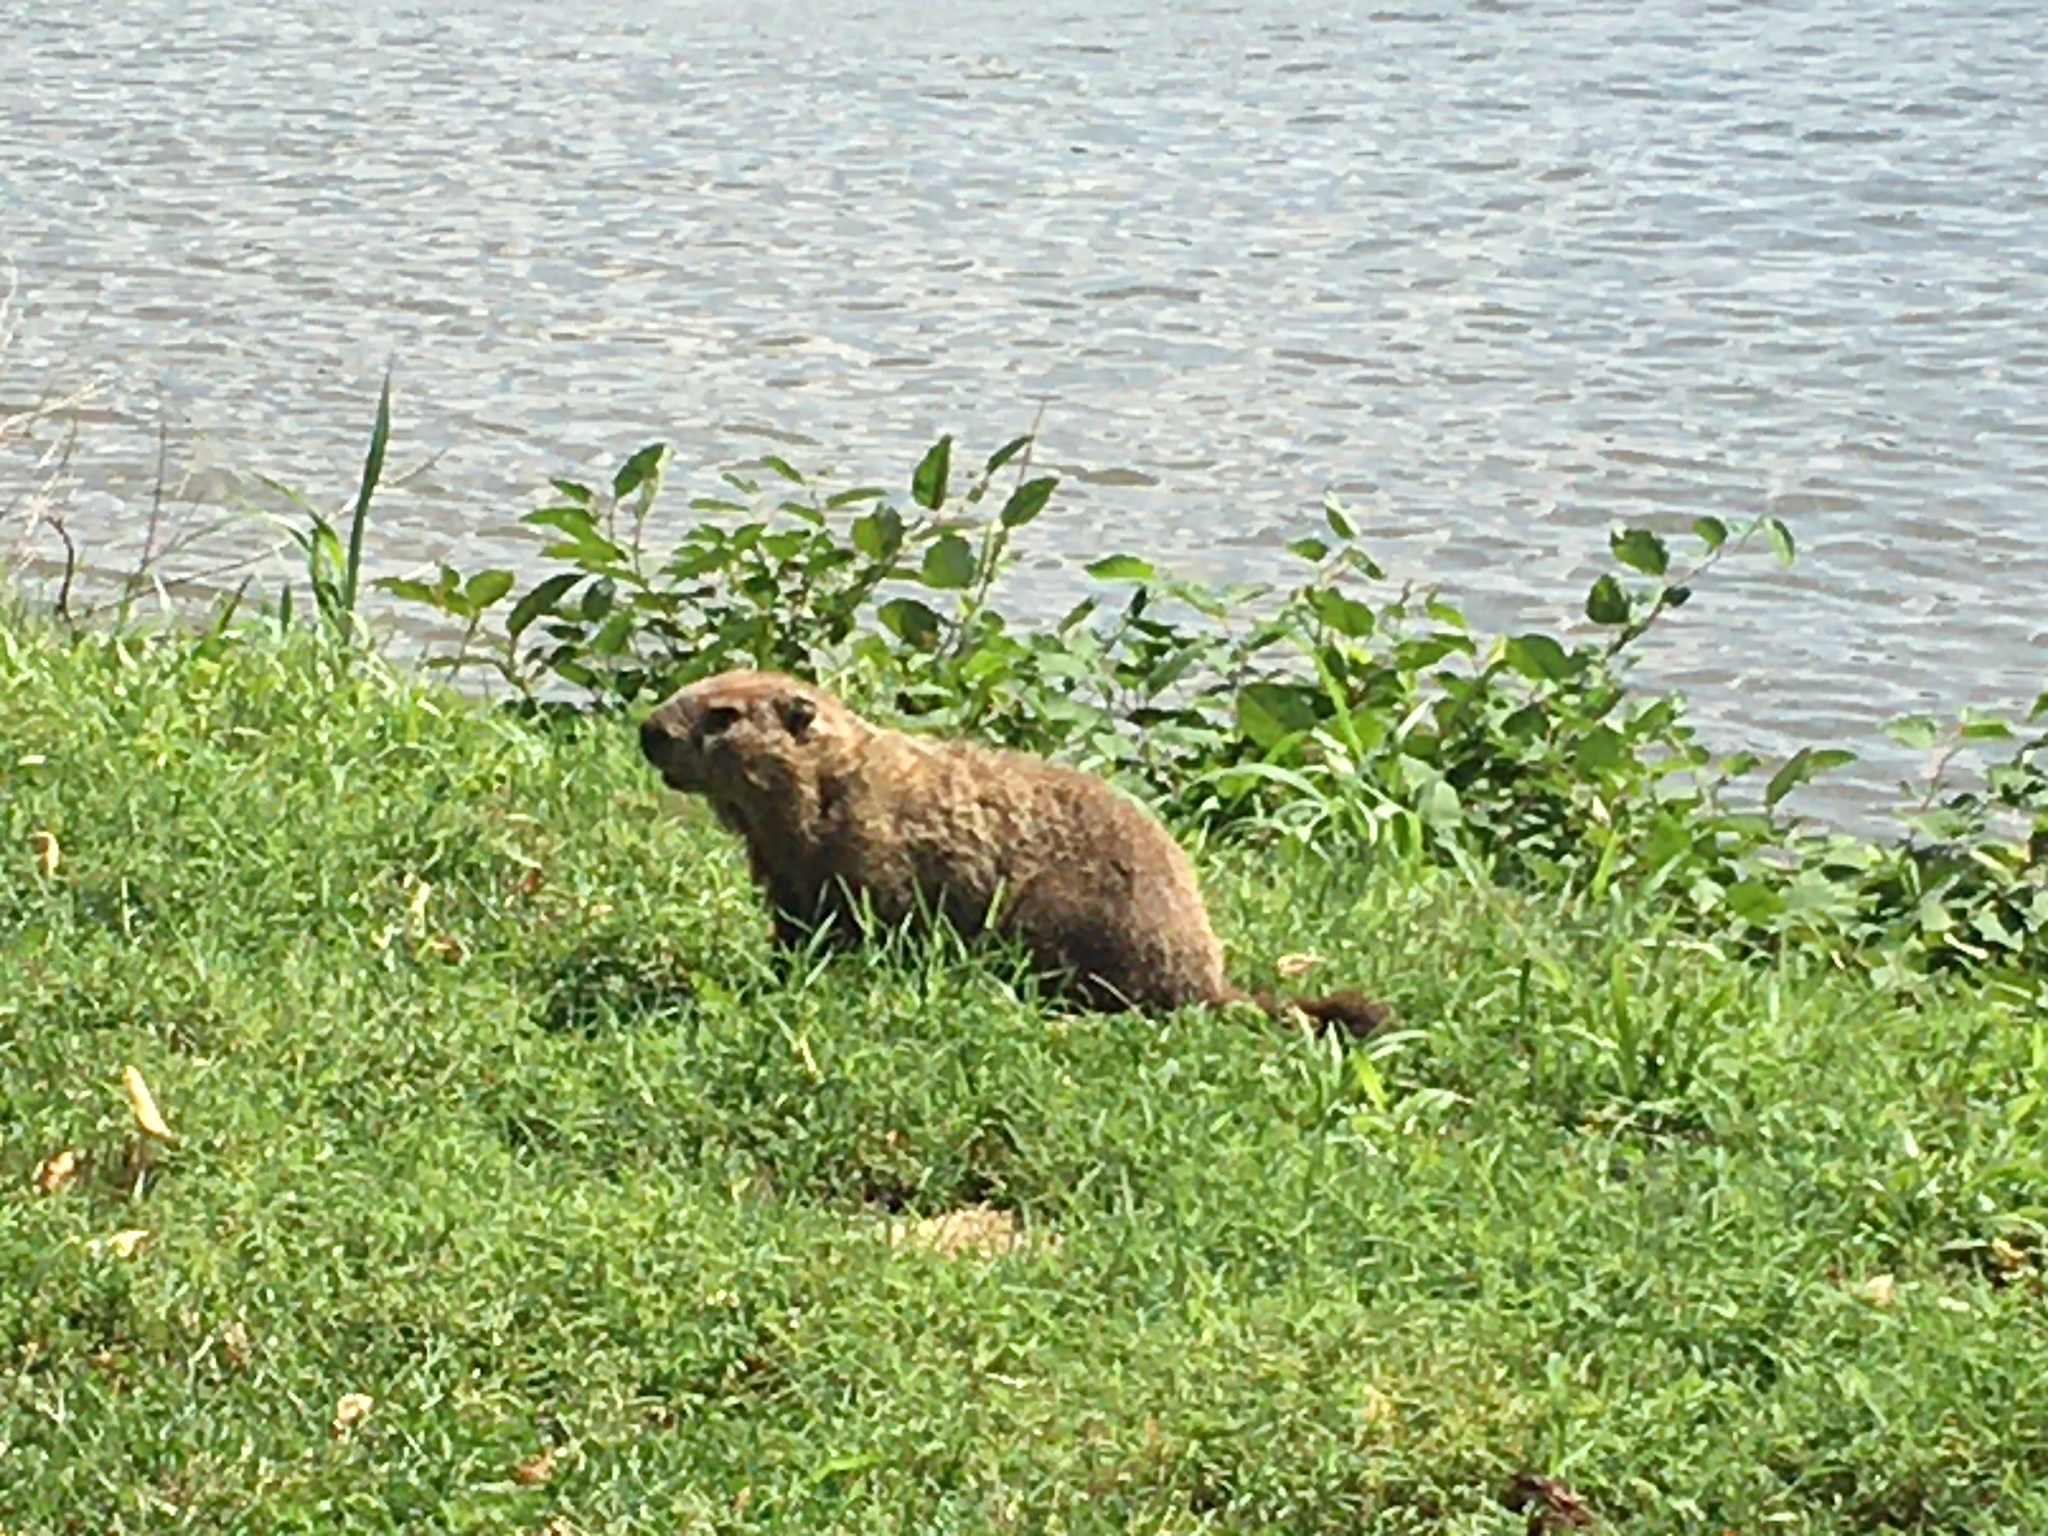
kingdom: Animalia
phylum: Chordata
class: Mammalia
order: Rodentia
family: Sciuridae
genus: Marmota
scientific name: Marmota monax
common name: Groundhog
